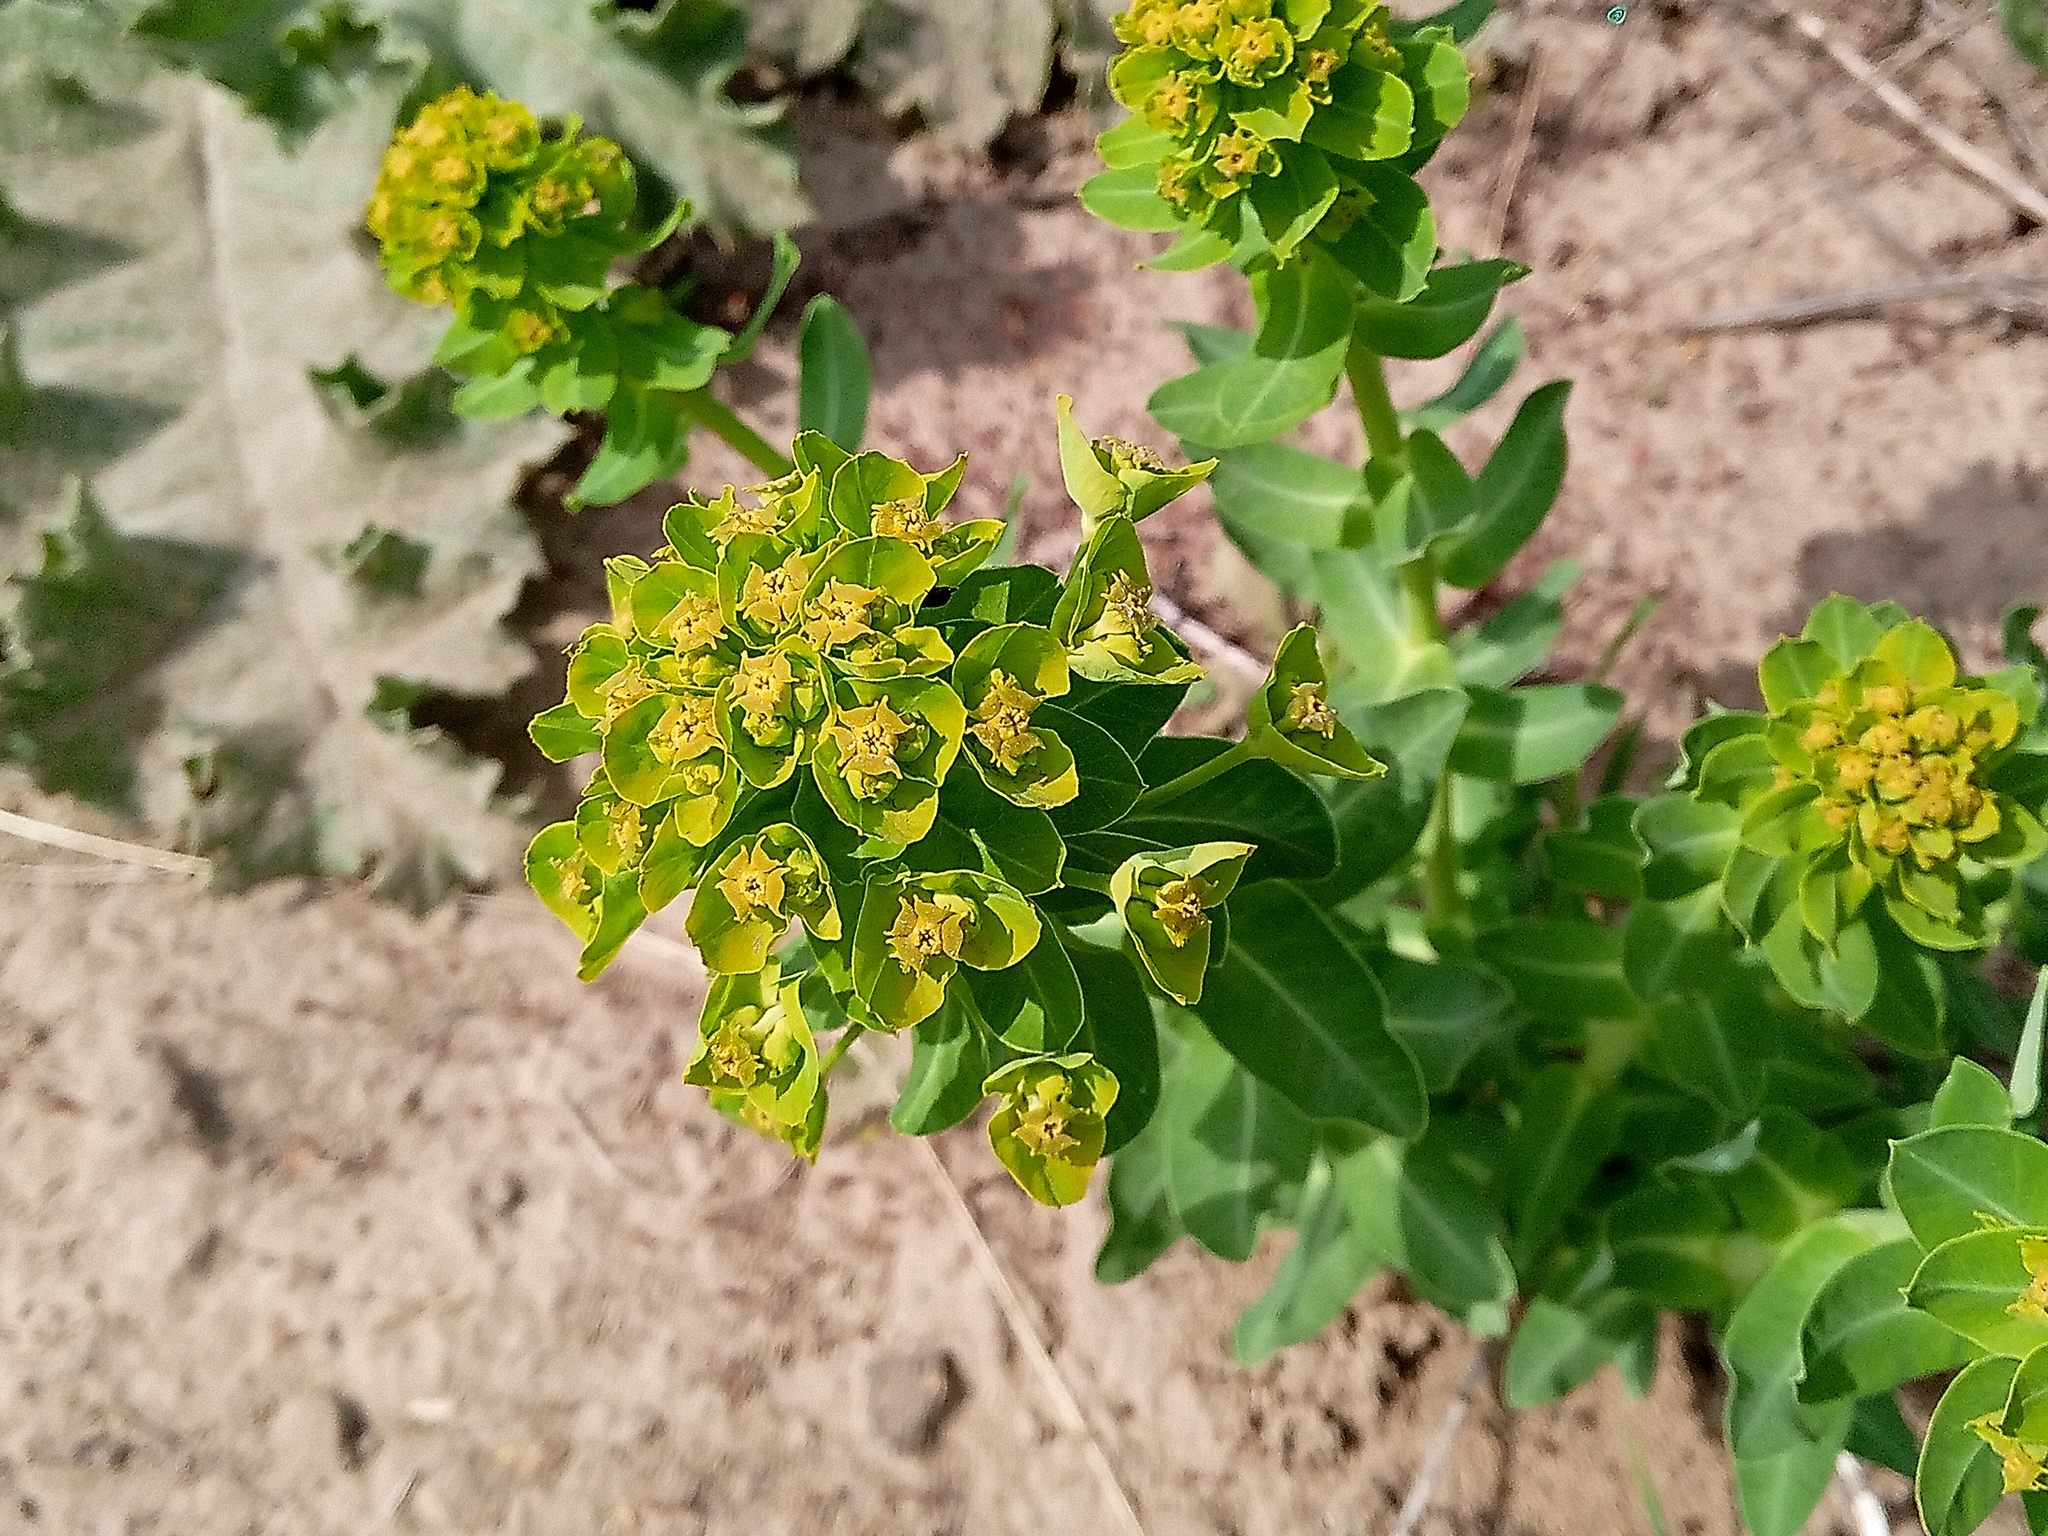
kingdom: Plantae
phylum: Tracheophyta
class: Magnoliopsida
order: Malpighiales
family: Euphorbiaceae
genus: Euphorbia
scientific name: Euphorbia agraria
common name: Urban spurge
